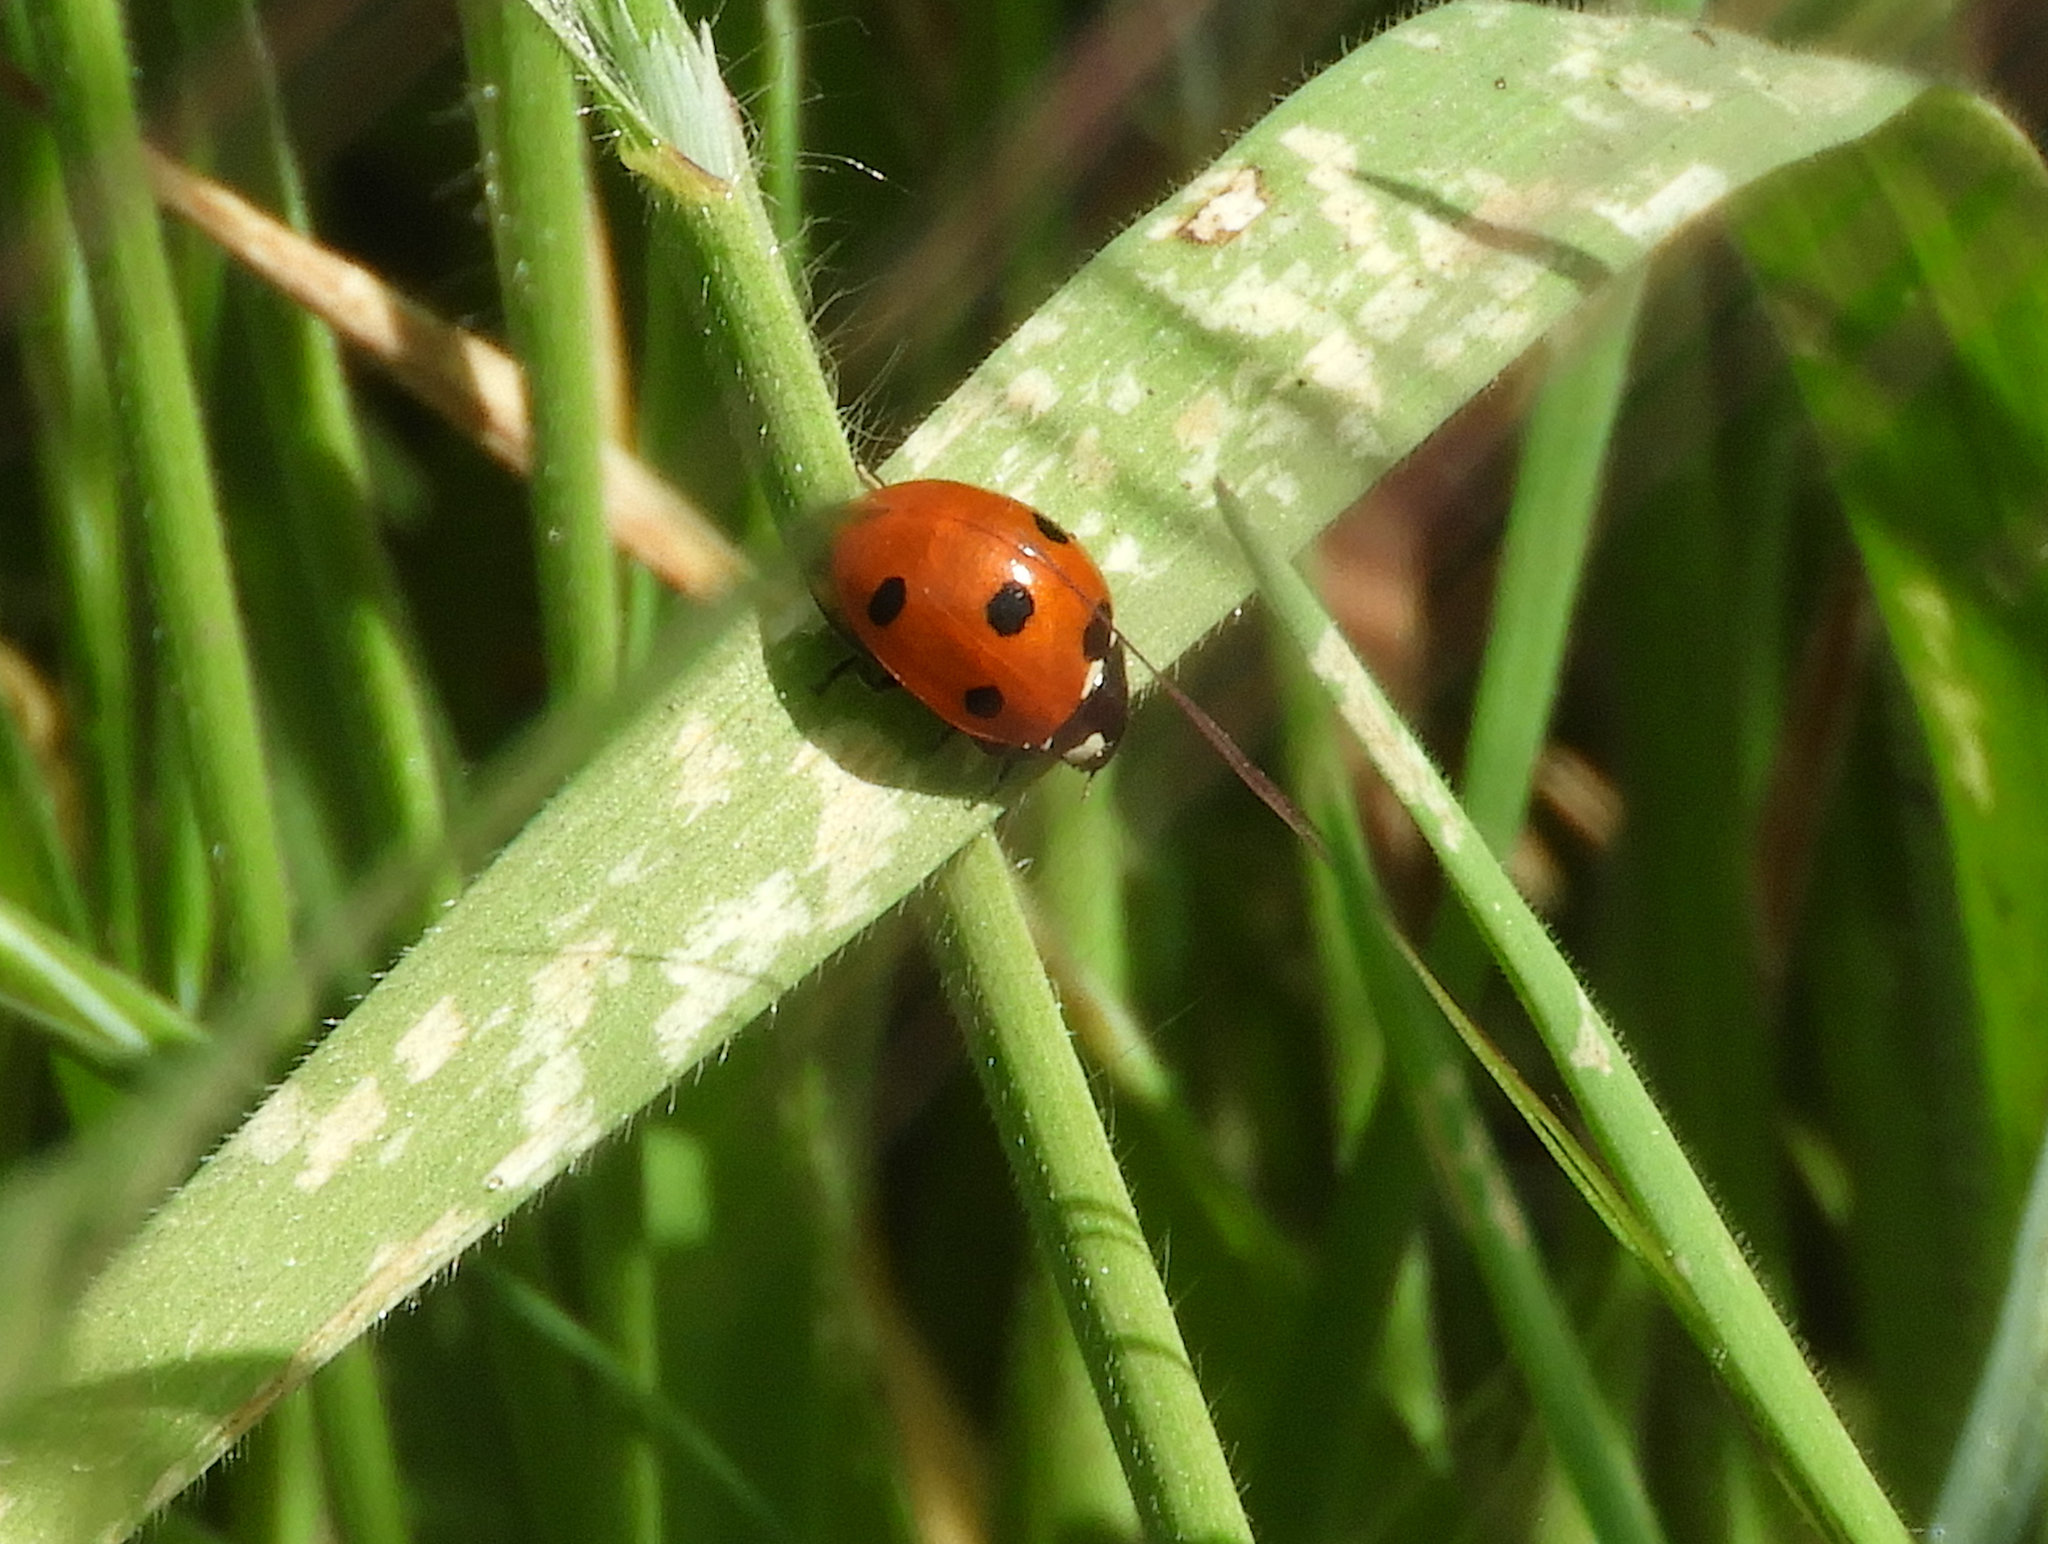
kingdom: Animalia
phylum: Arthropoda
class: Insecta
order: Coleoptera
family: Coccinellidae
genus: Coccinella
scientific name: Coccinella septempunctata
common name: Sevenspotted lady beetle
